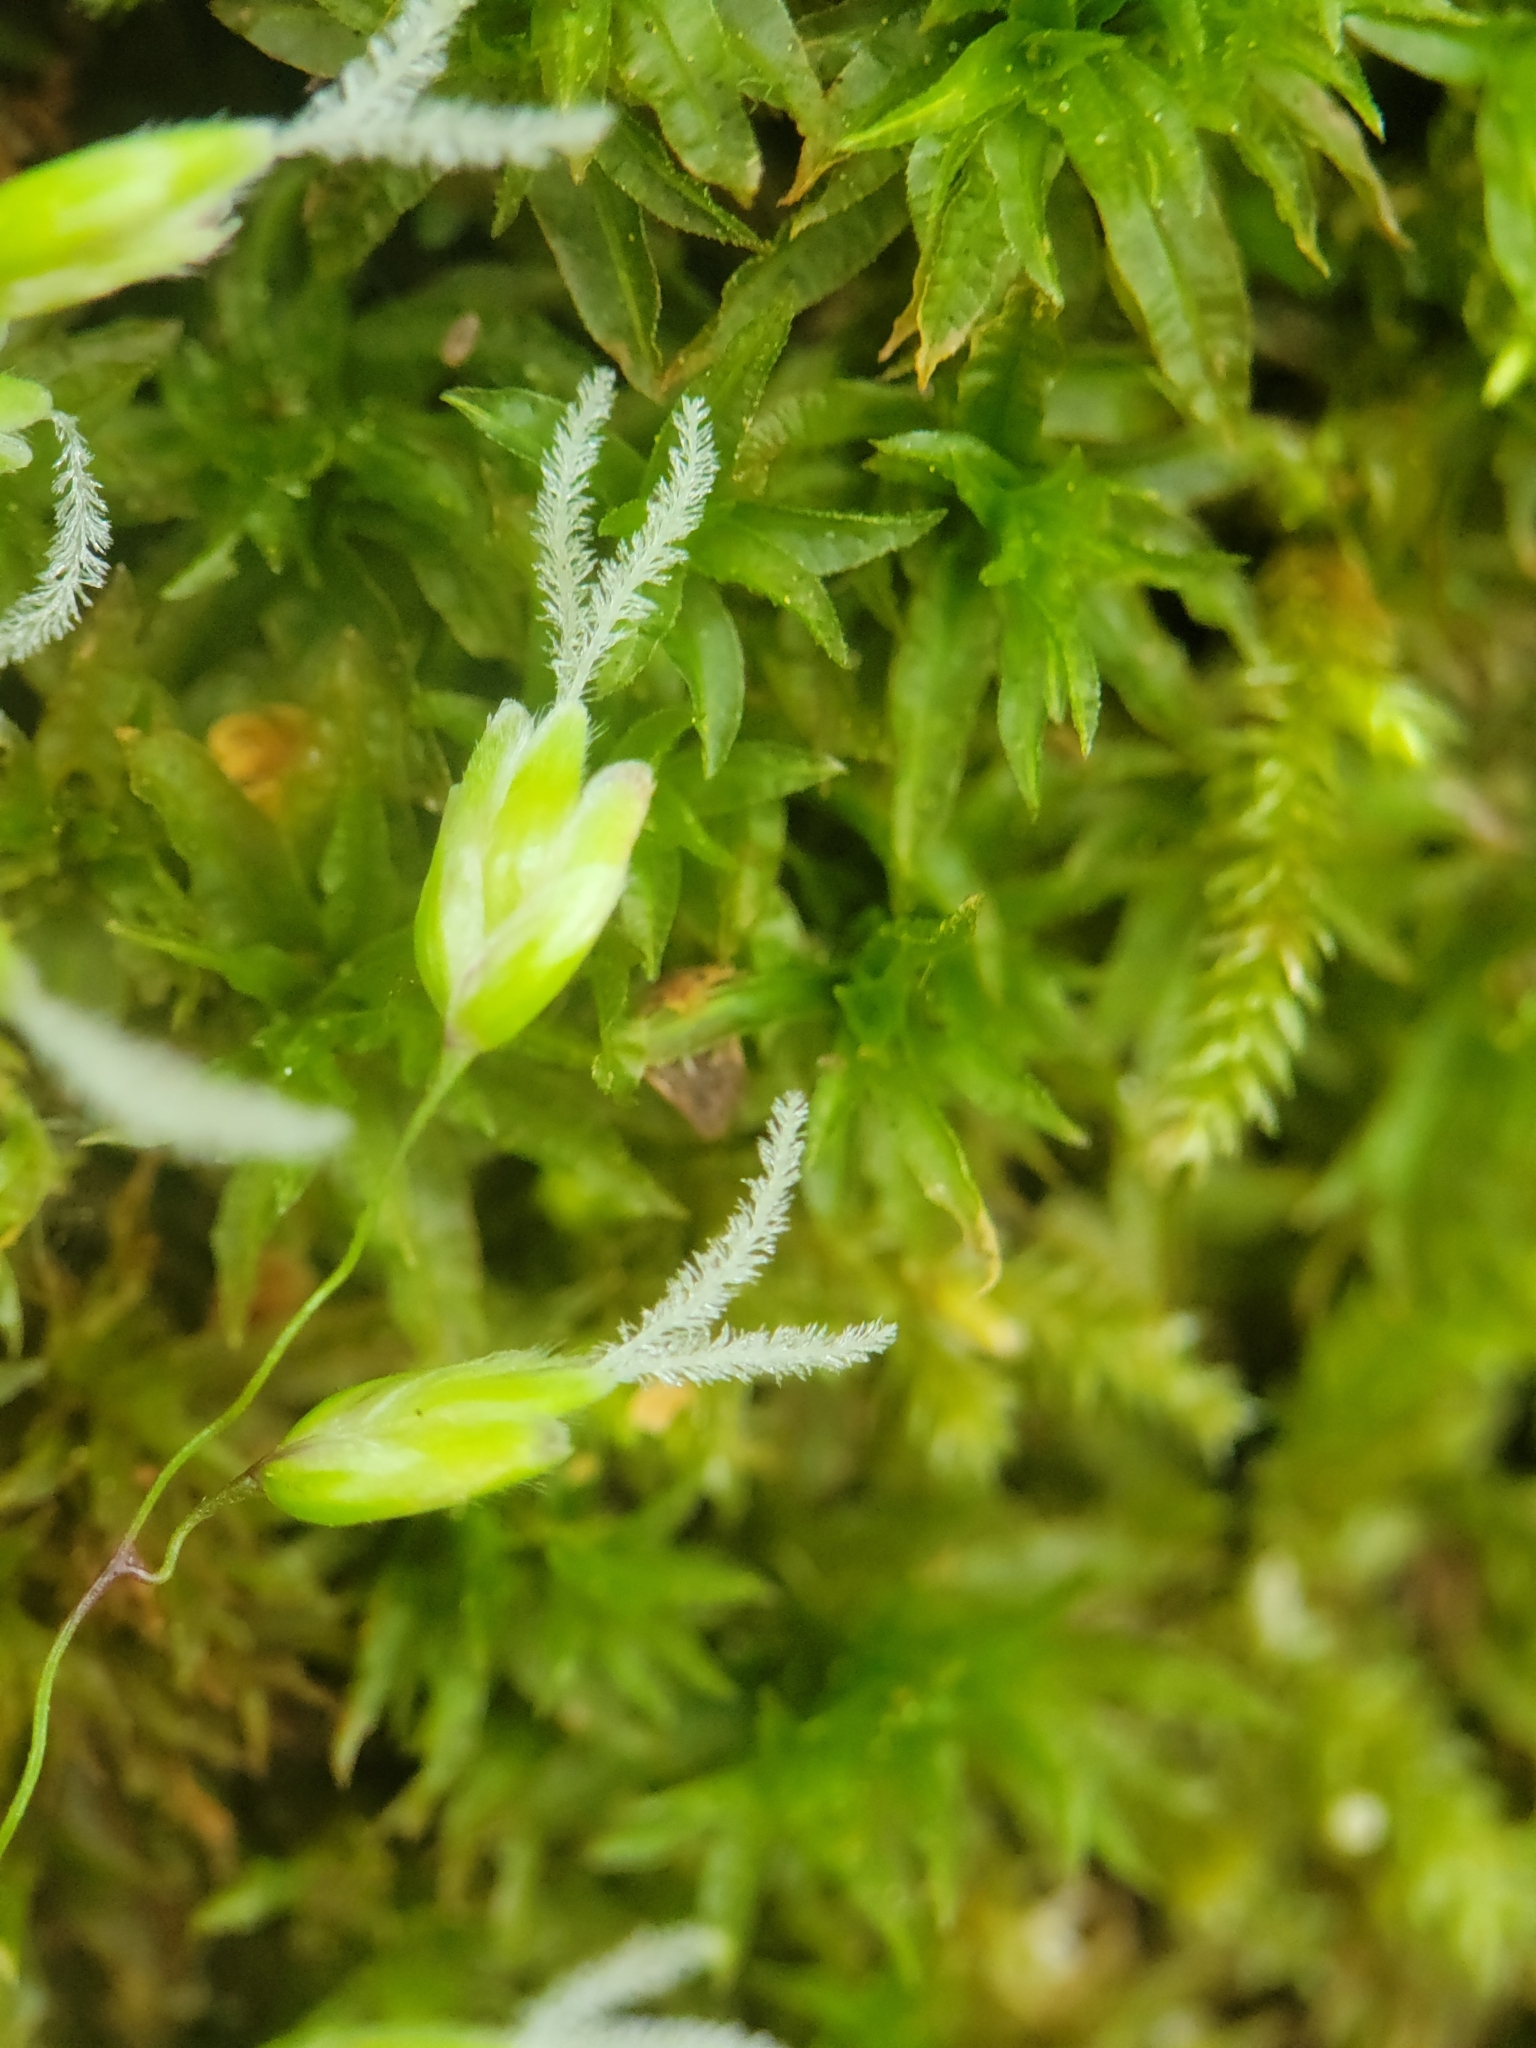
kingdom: Plantae
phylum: Tracheophyta
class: Liliopsida
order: Poales
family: Poaceae
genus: Anthoxanthum
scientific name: Anthoxanthum occidentale
